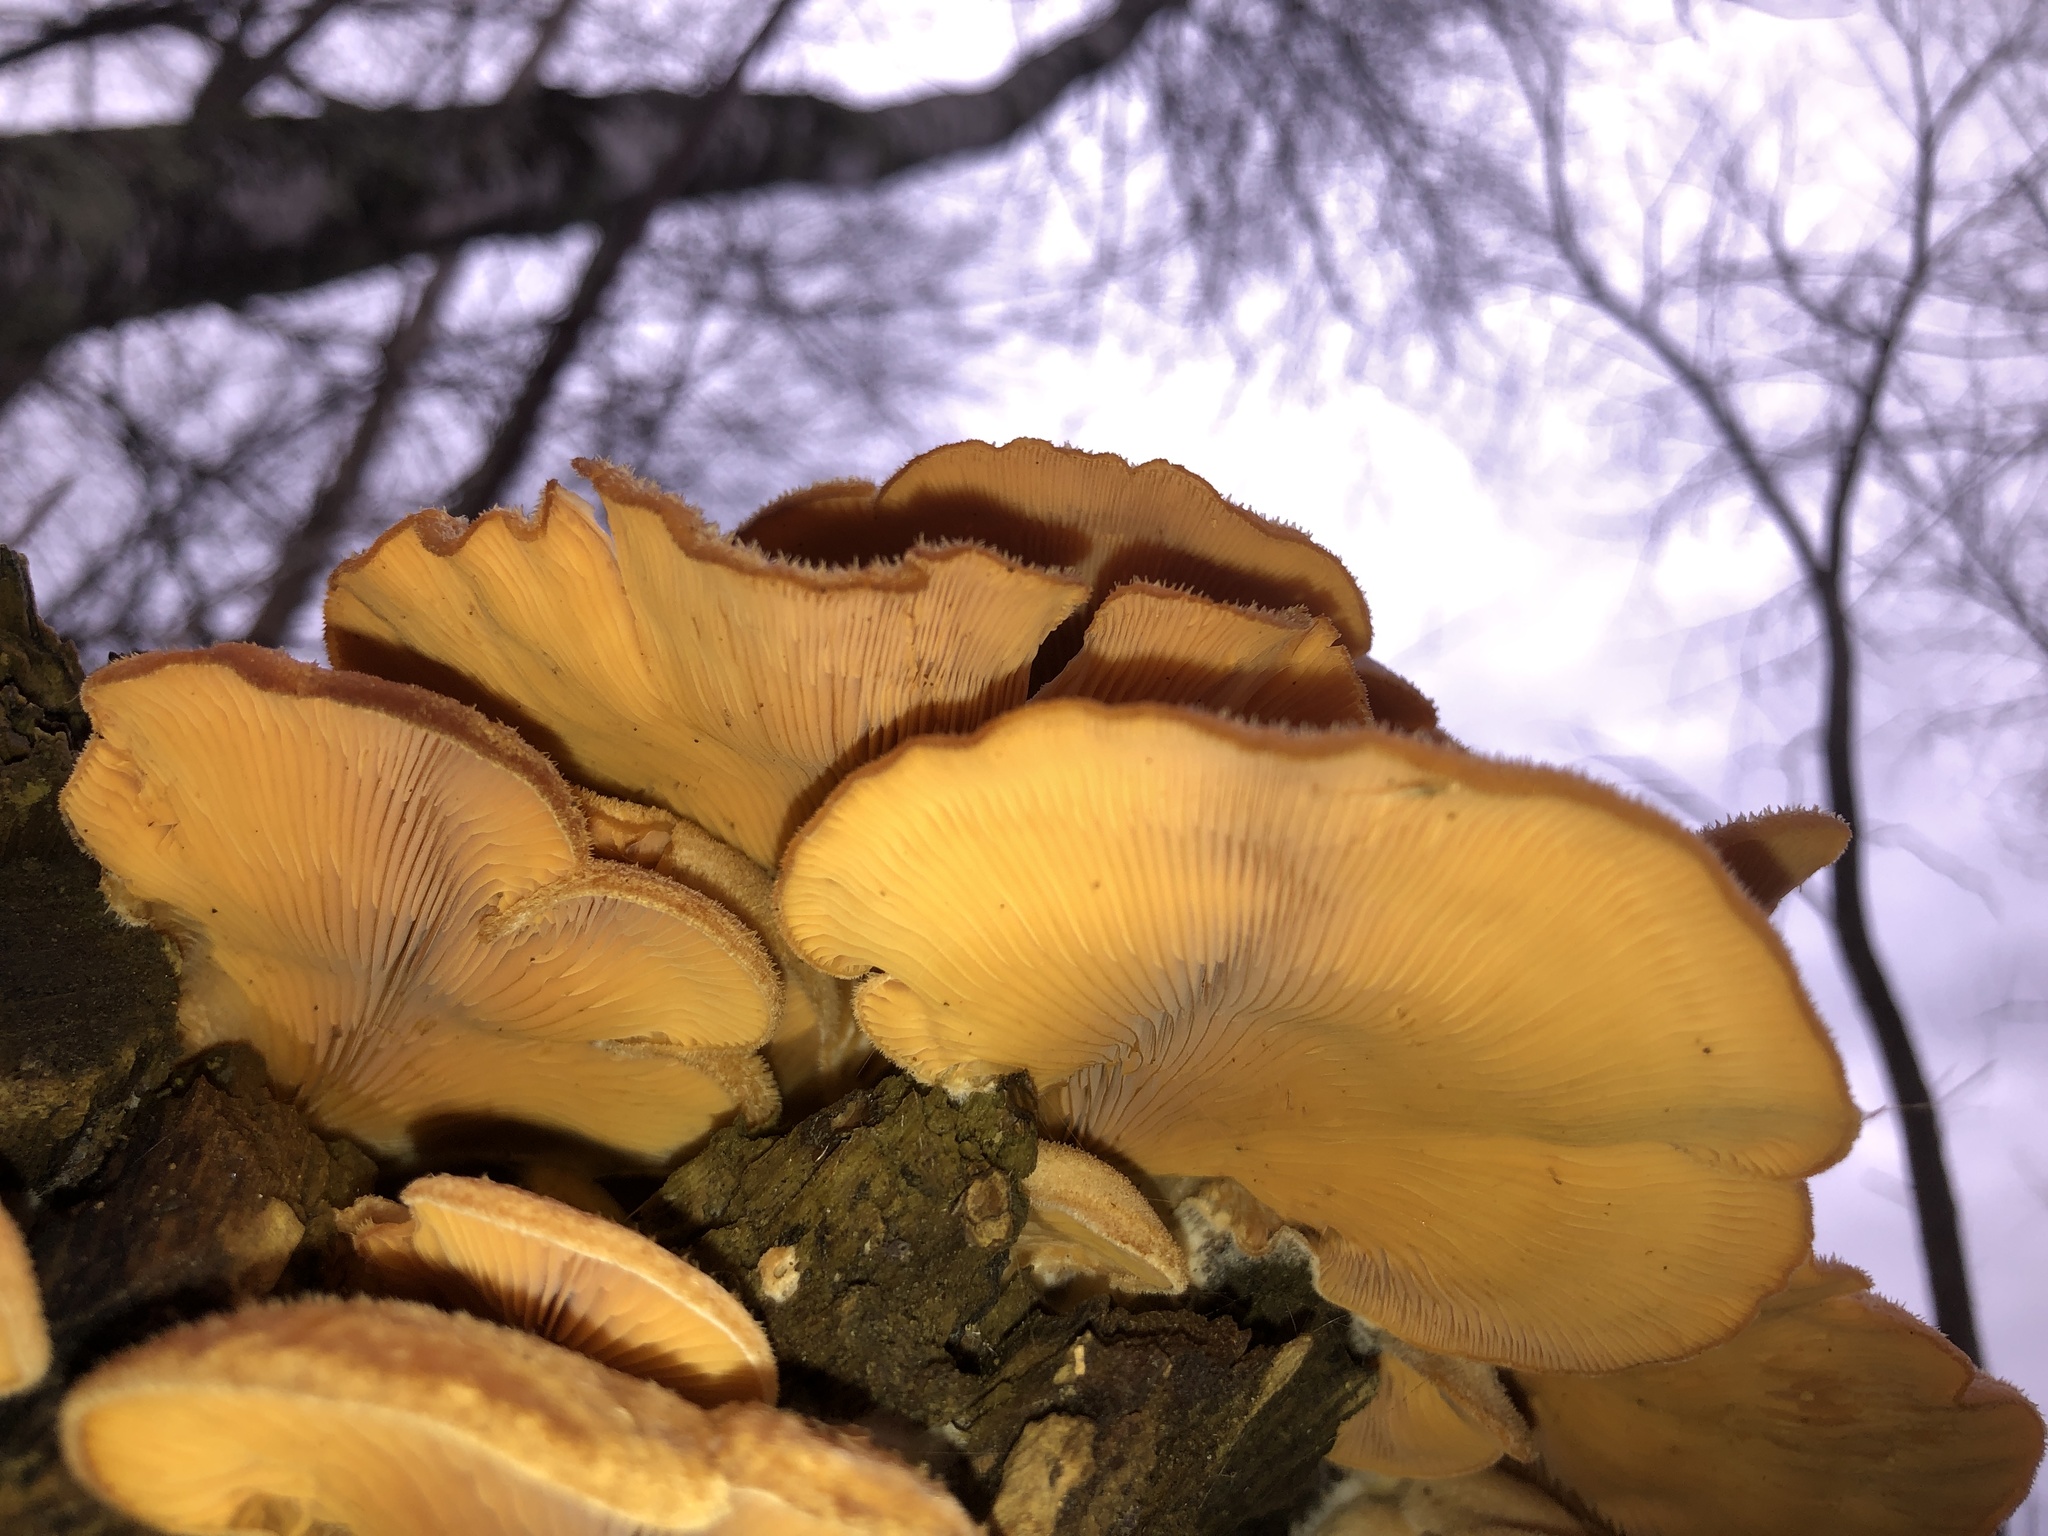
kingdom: Fungi
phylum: Basidiomycota
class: Agaricomycetes
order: Agaricales
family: Phyllotopsidaceae
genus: Phyllotopsis
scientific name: Phyllotopsis nidulans
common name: Orange mock oyster
